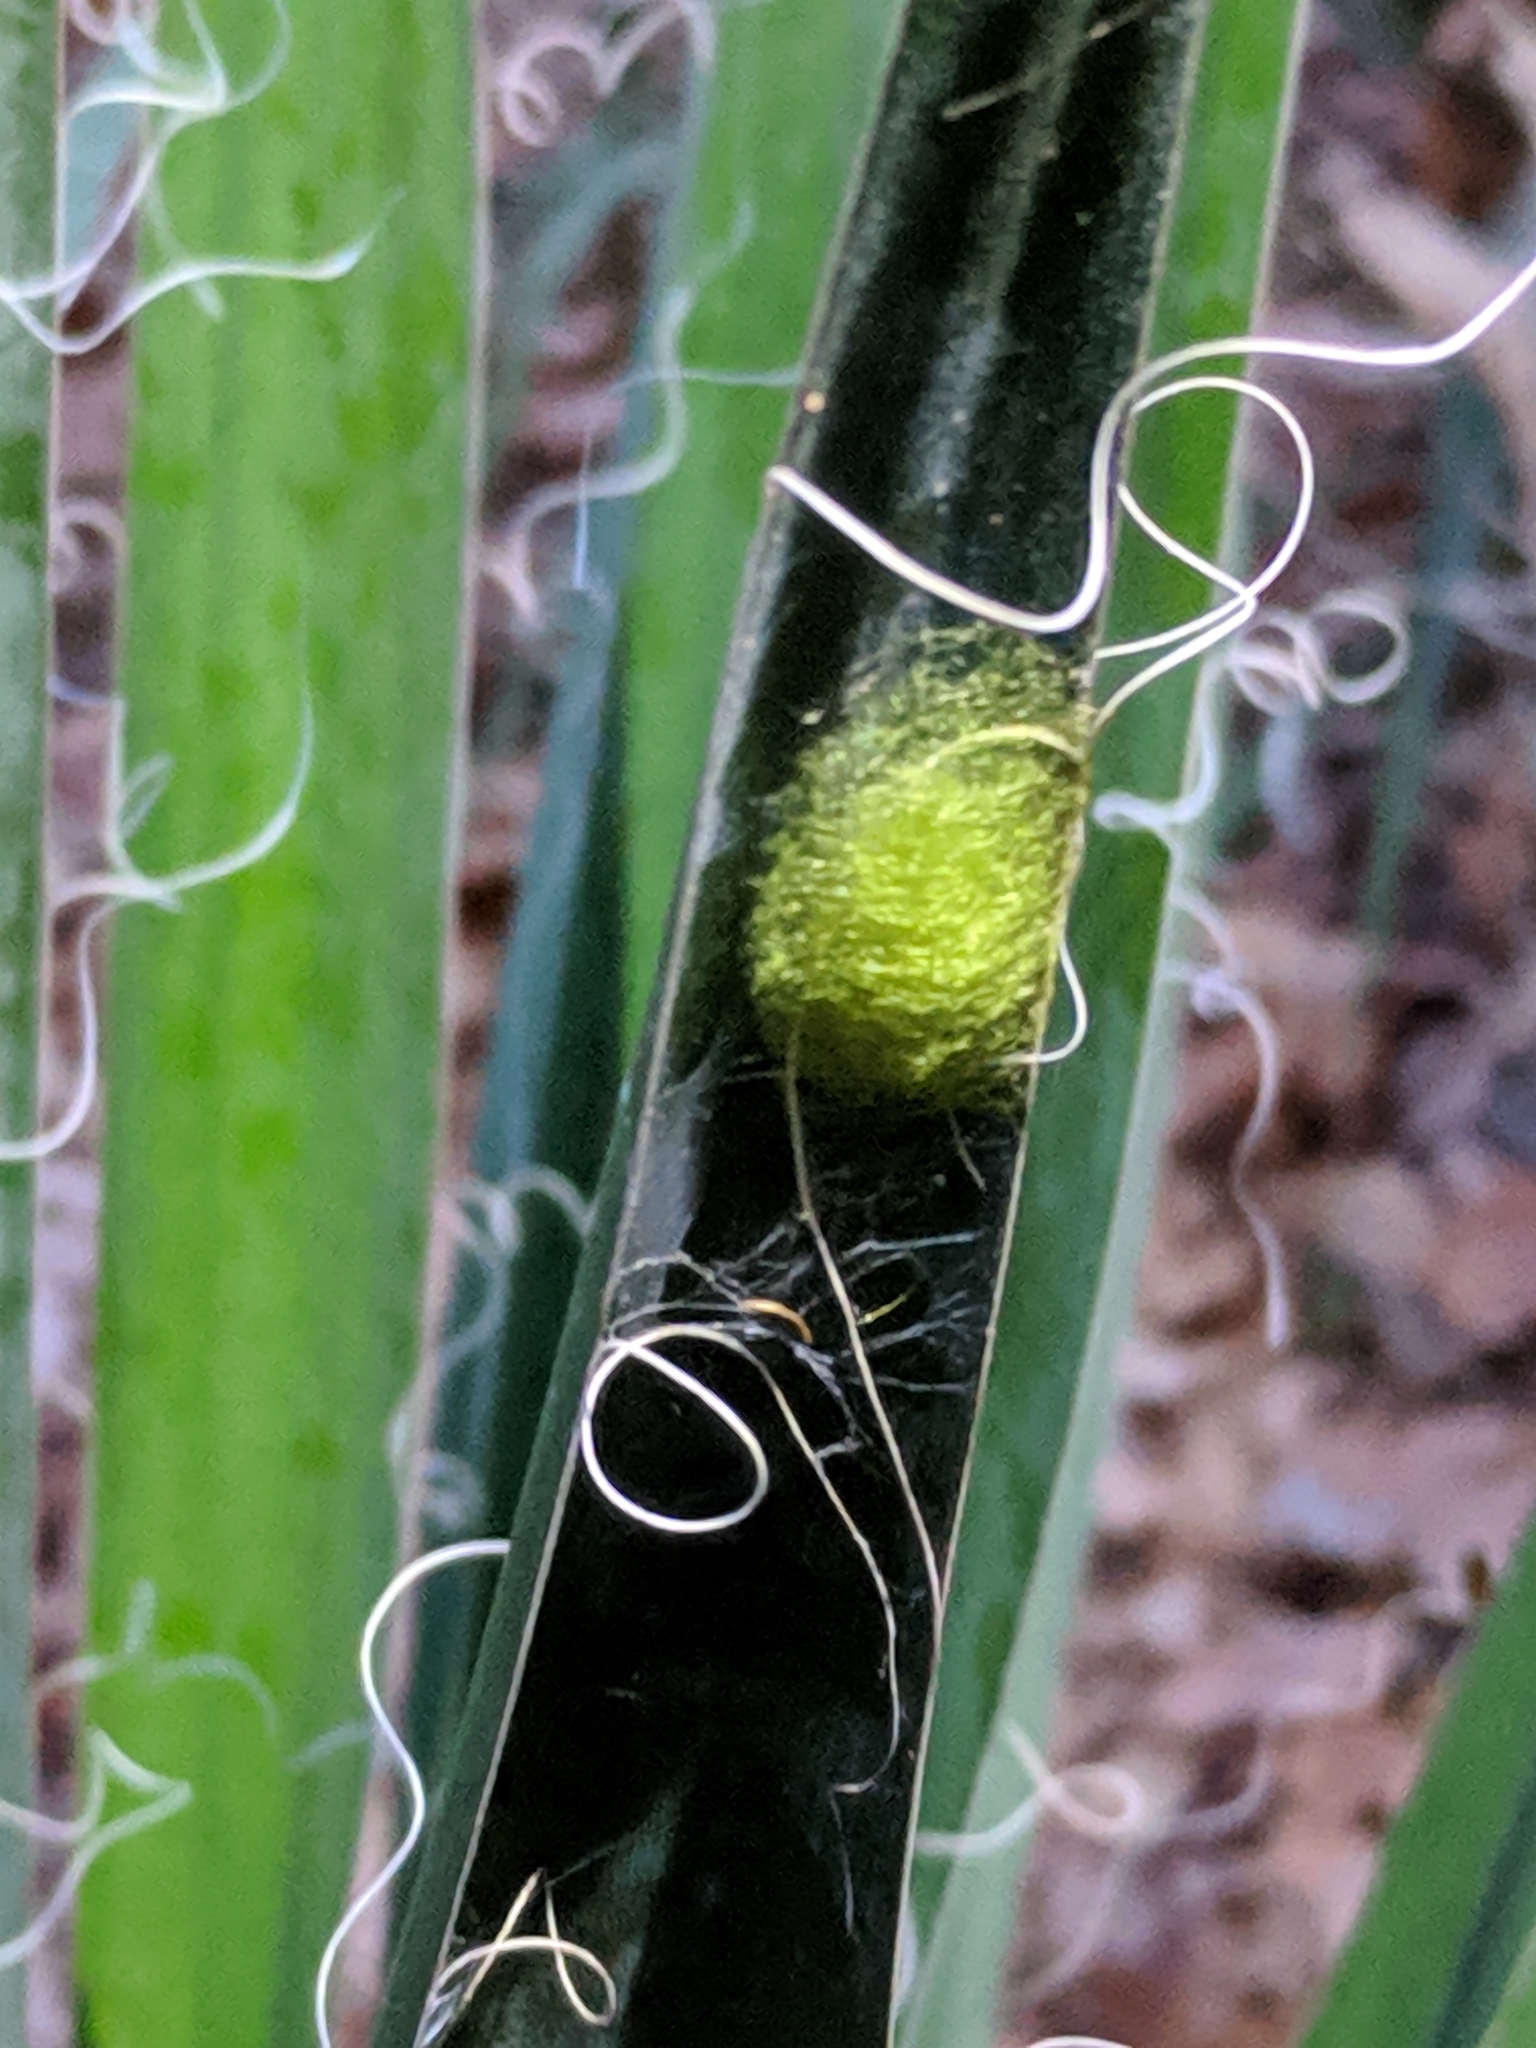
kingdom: Animalia
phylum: Arthropoda
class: Arachnida
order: Araneae
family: Araneidae
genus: Gasteracantha
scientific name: Gasteracantha cancriformis
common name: Orb weavers
